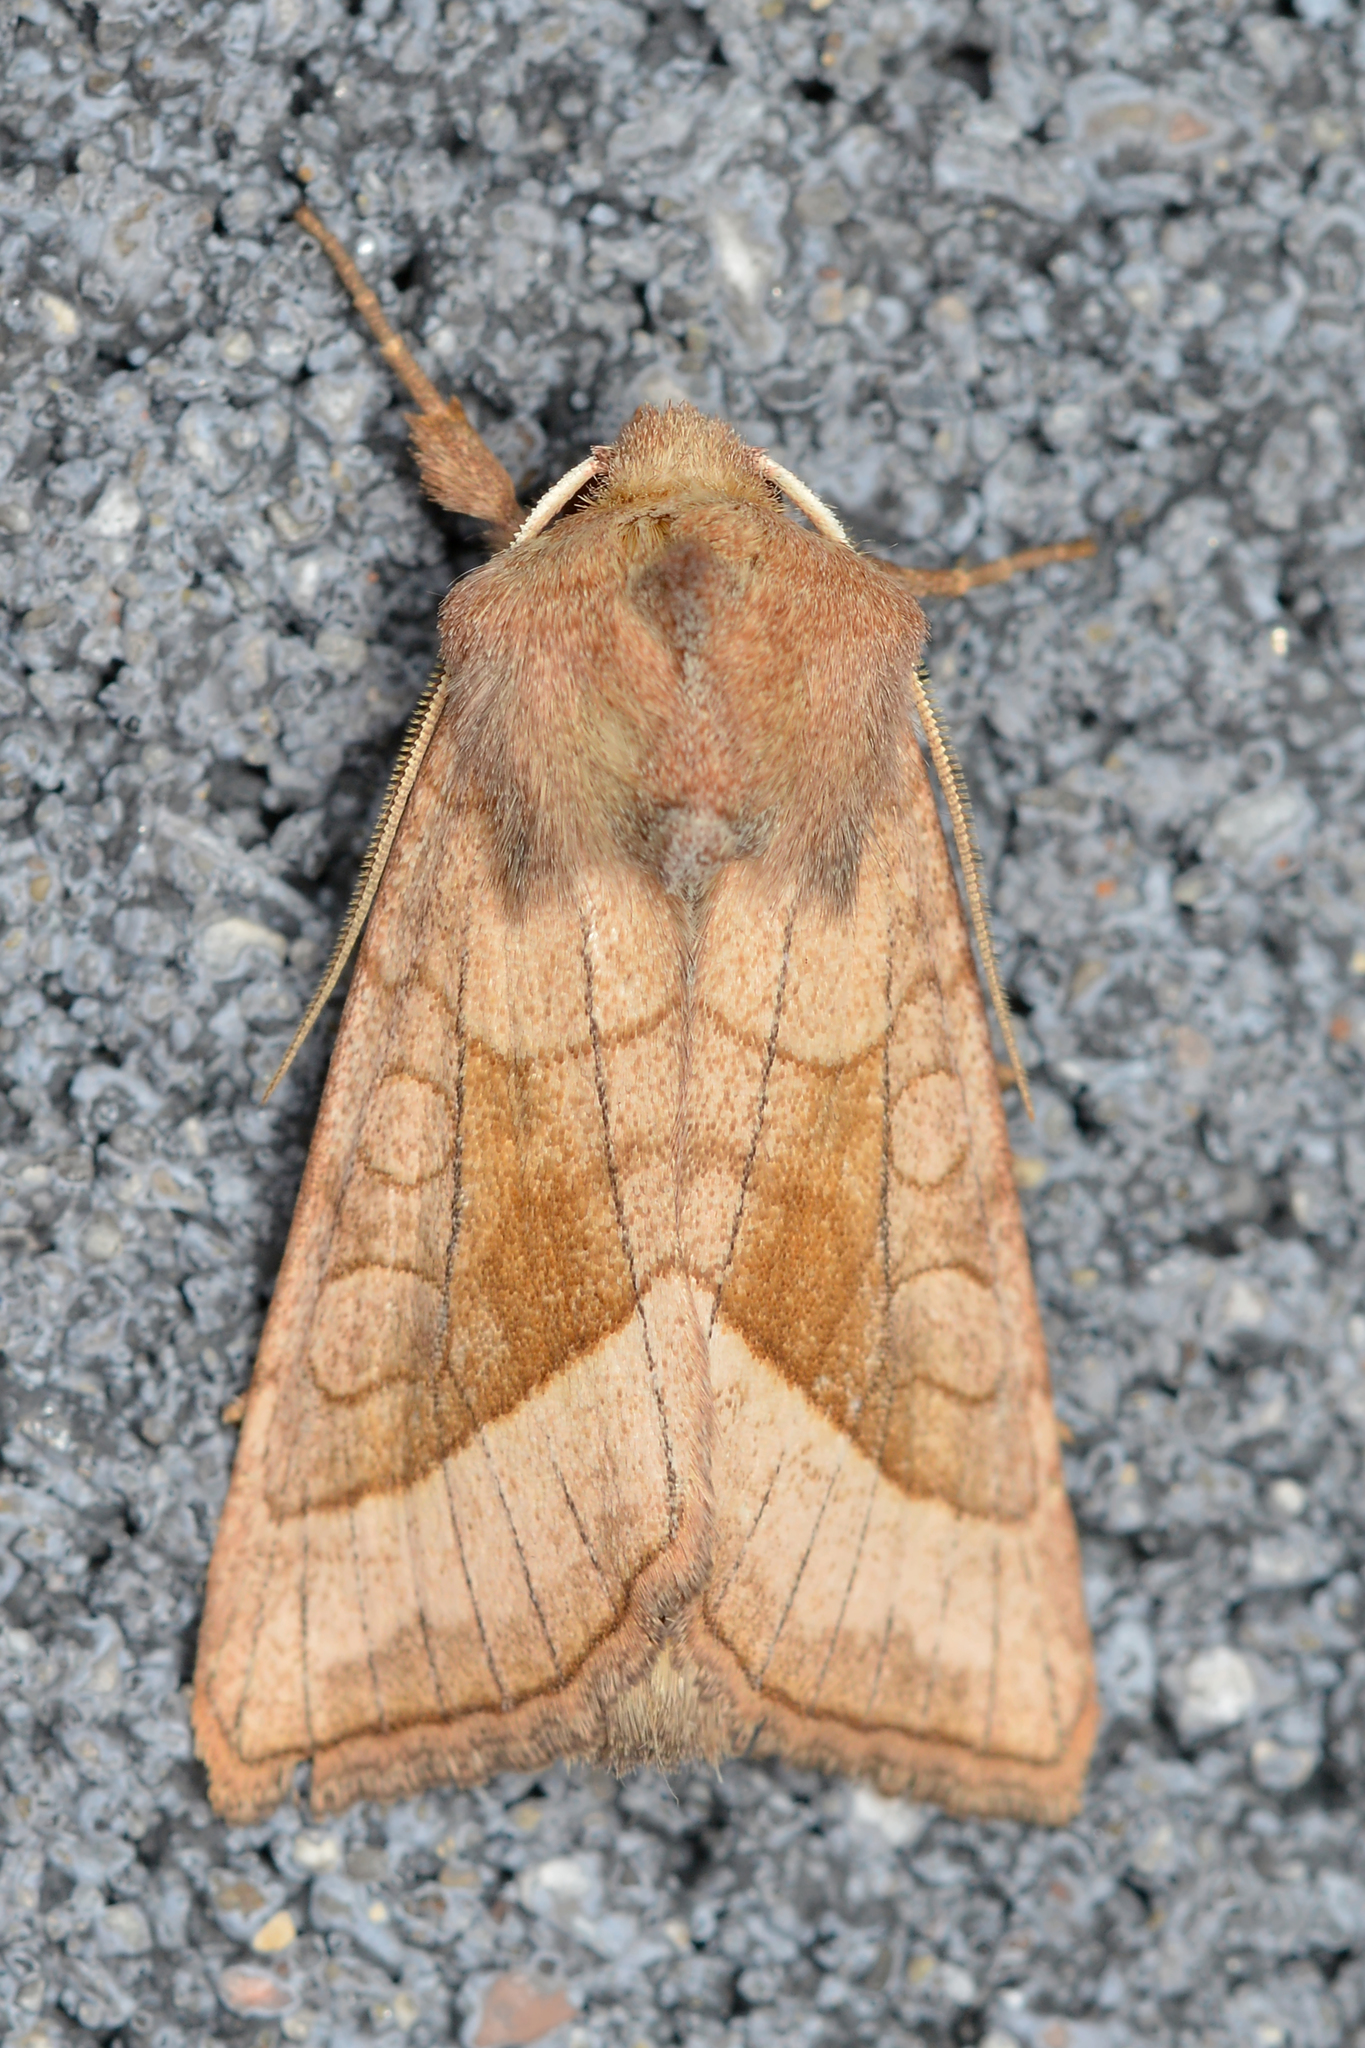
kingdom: Animalia
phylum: Arthropoda
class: Insecta
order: Lepidoptera
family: Noctuidae
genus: Hydraecia
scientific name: Hydraecia micacea
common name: Rosy rustic
